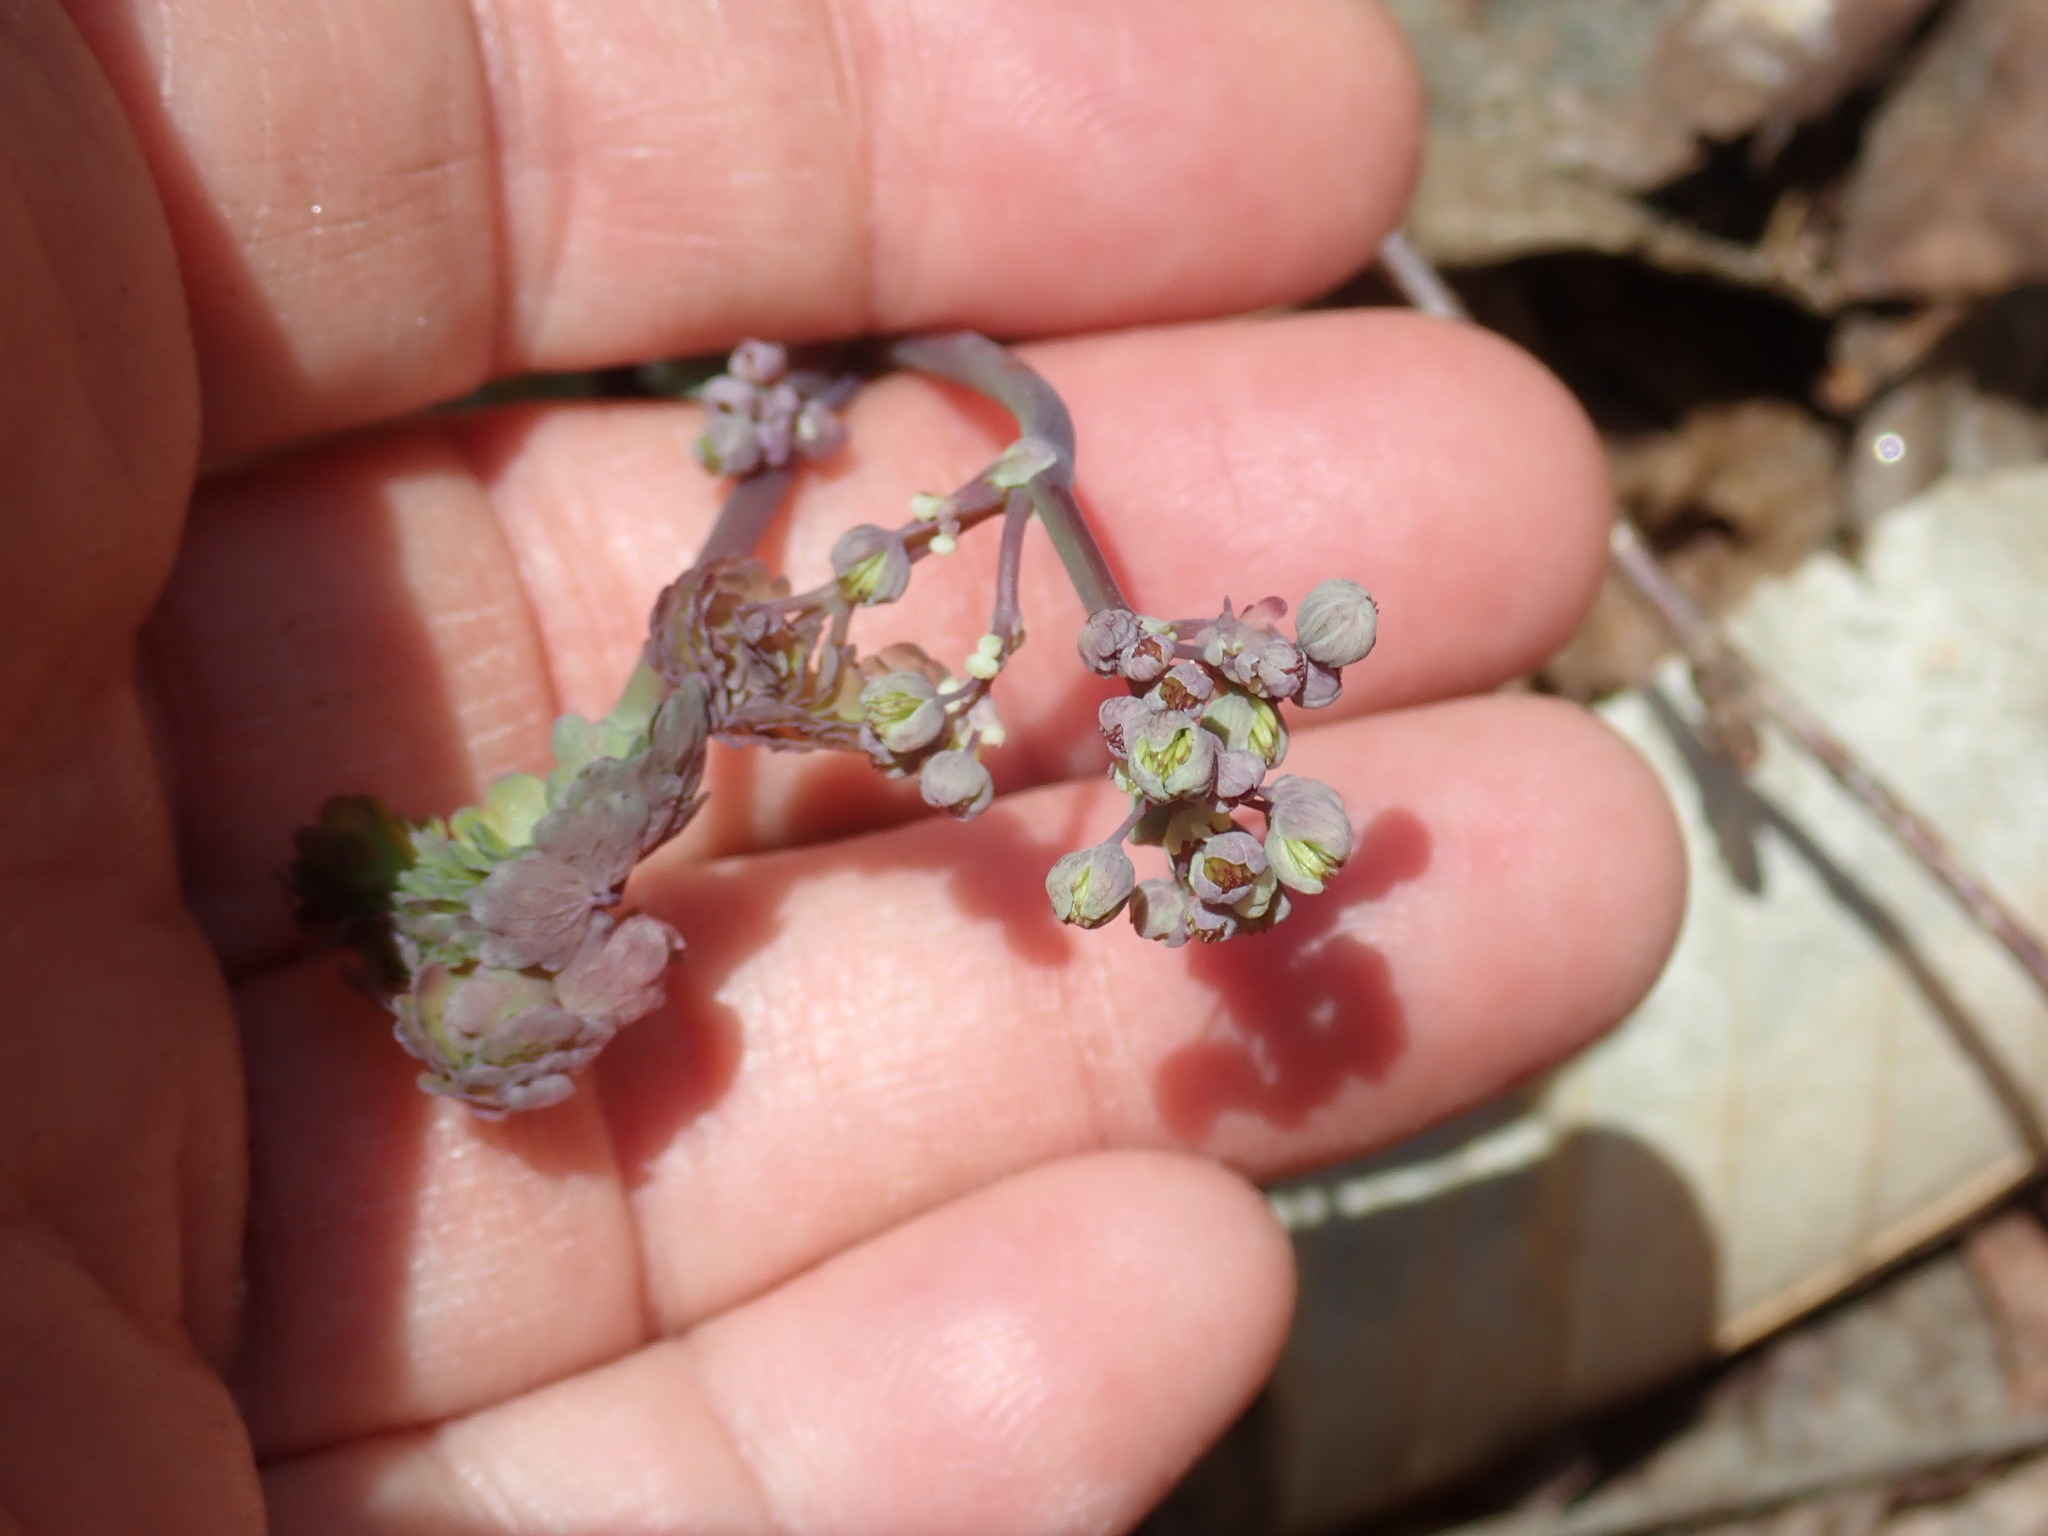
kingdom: Plantae
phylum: Tracheophyta
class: Magnoliopsida
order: Ranunculales
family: Ranunculaceae
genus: Thalictrum
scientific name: Thalictrum dioicum
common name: Early meadow-rue
